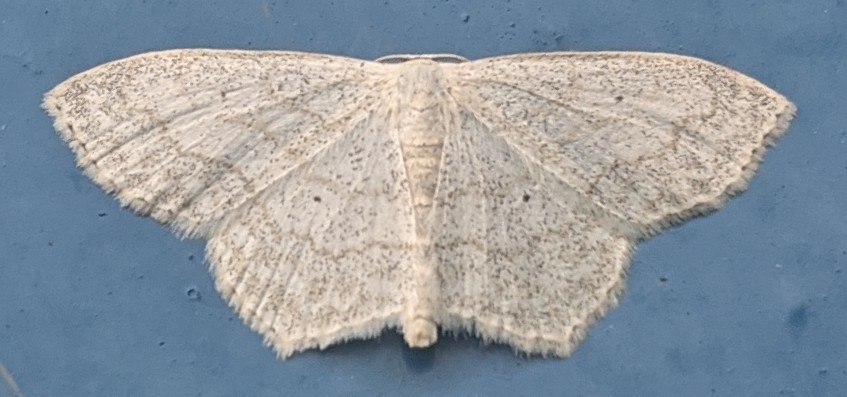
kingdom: Animalia
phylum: Arthropoda
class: Insecta
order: Lepidoptera
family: Geometridae
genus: Scopula
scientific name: Scopula limboundata
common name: Large lace border
